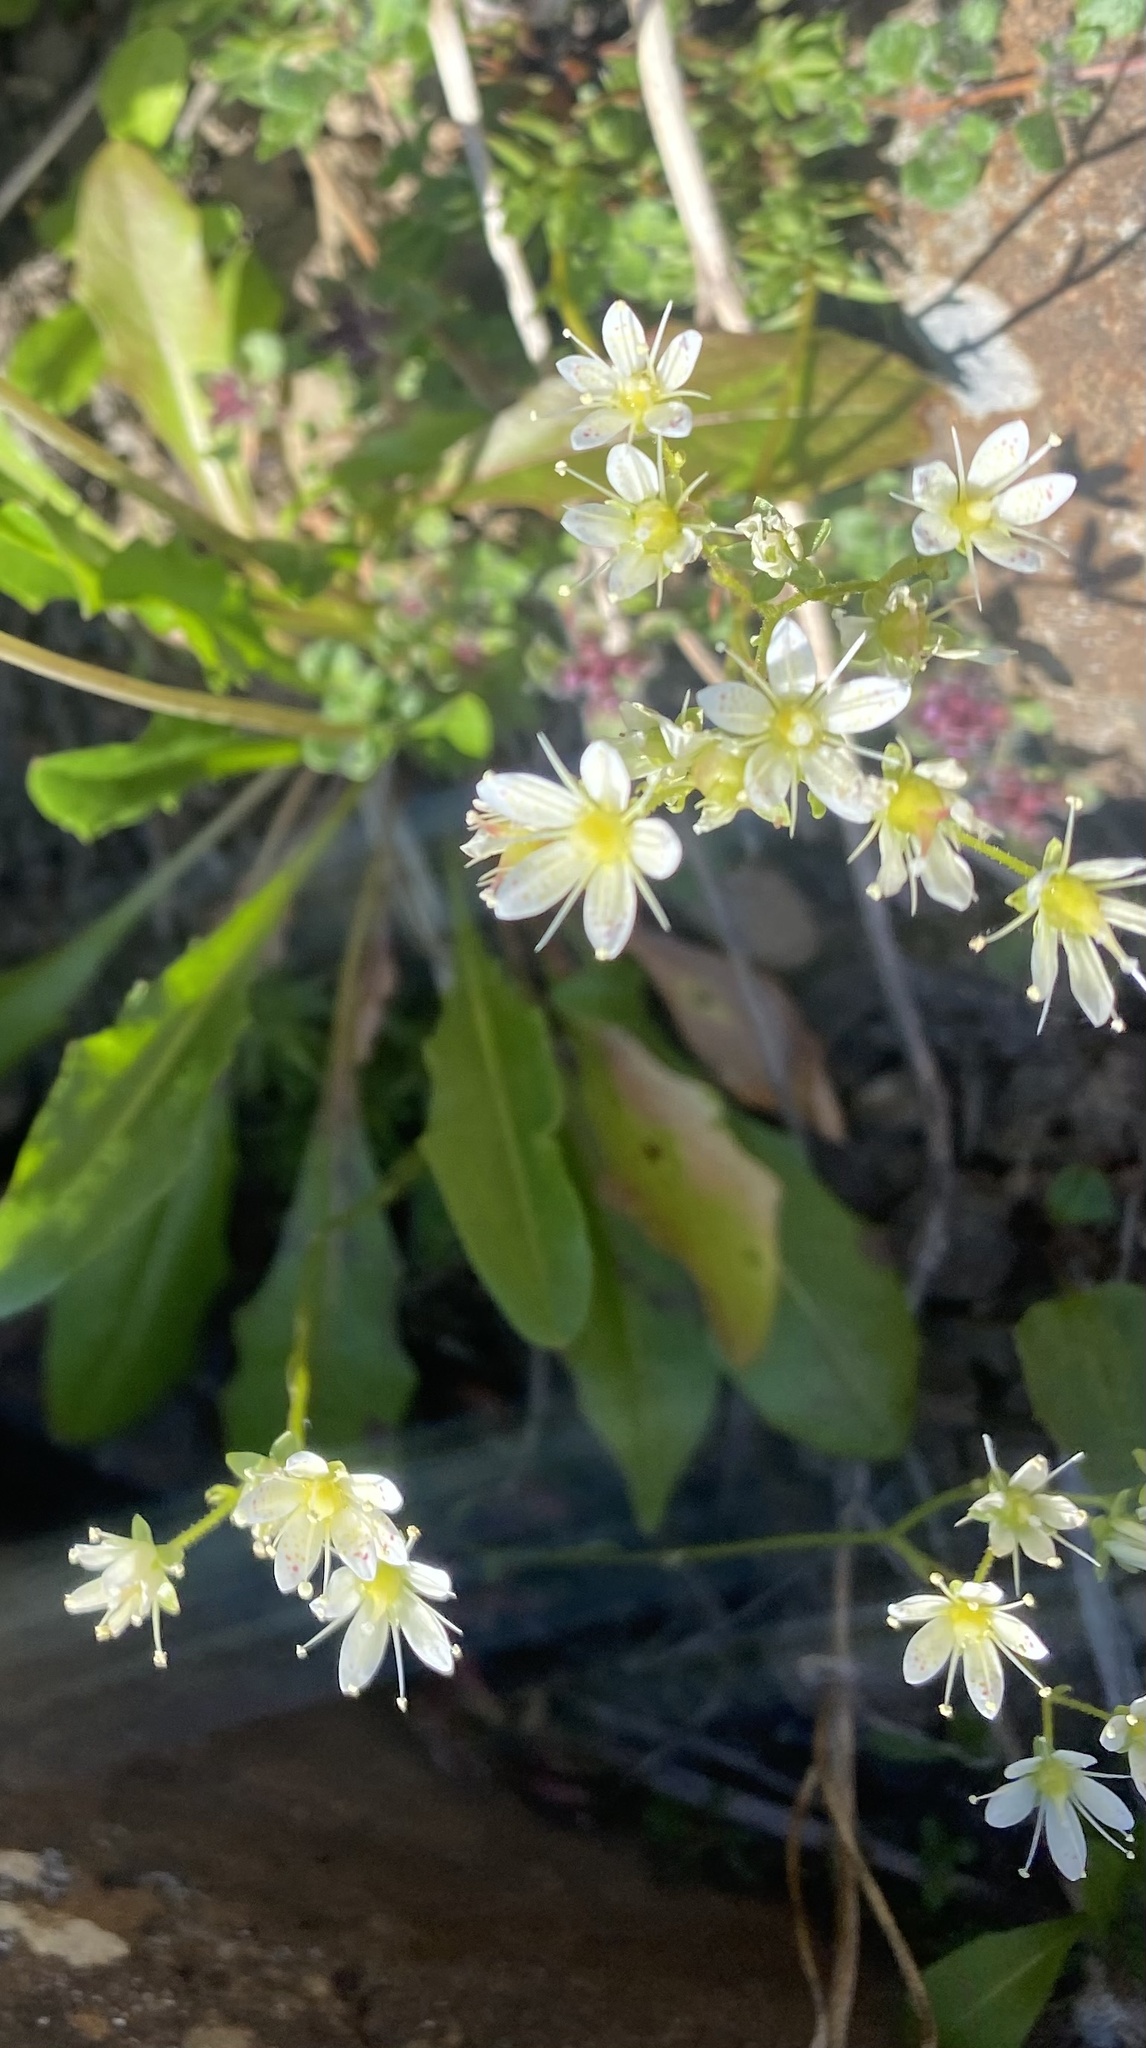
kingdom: Plantae
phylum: Tracheophyta
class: Magnoliopsida
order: Saxifragales
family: Saxifragaceae
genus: Saxifraga
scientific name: Saxifraga
